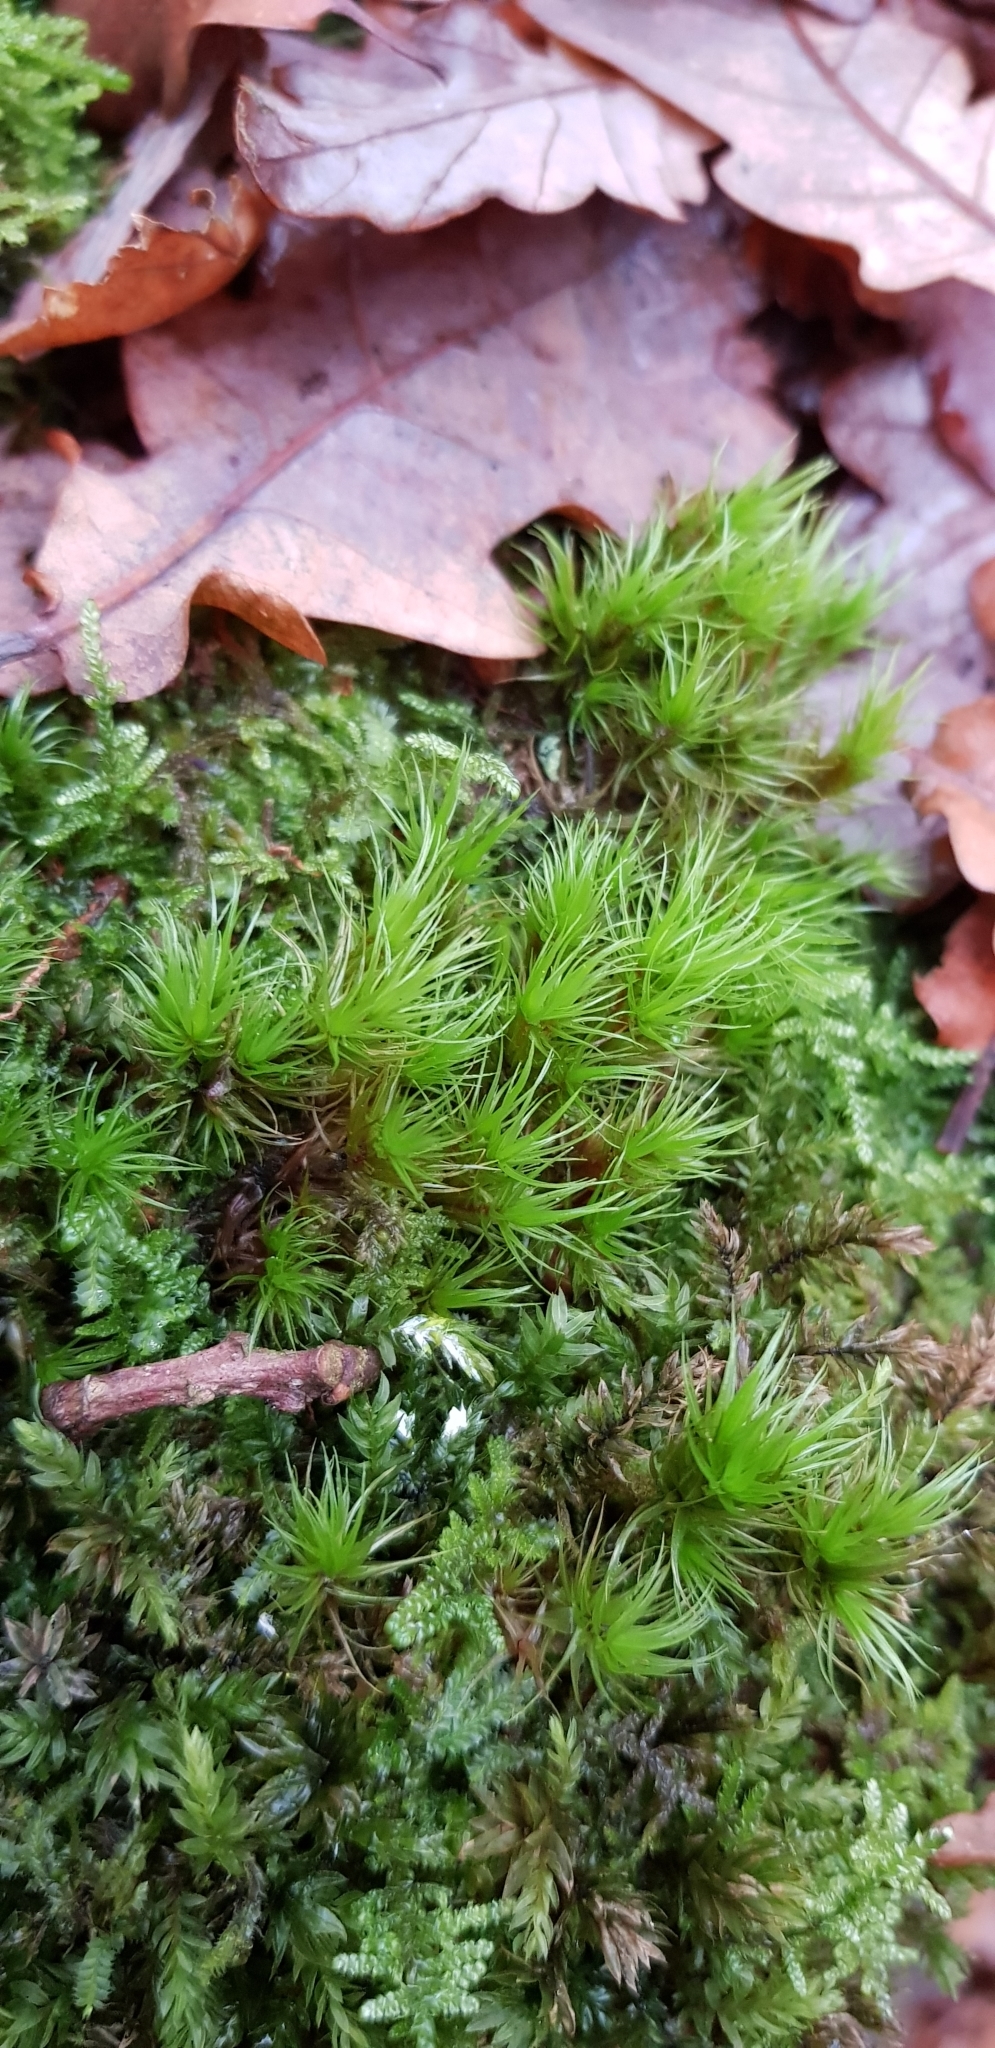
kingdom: Plantae
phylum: Bryophyta
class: Bryopsida
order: Dicranales
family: Dicranaceae
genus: Dicranum
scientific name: Dicranum scoparium
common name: Broom fork-moss
